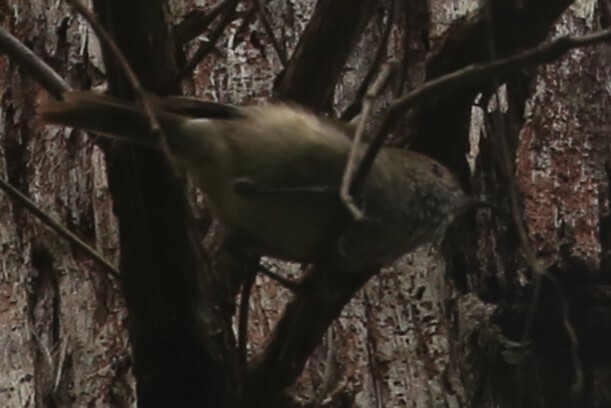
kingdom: Animalia
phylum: Chordata
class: Aves
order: Passeriformes
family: Acanthizidae
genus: Acanthiza
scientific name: Acanthiza pusilla
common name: Brown thornbill
